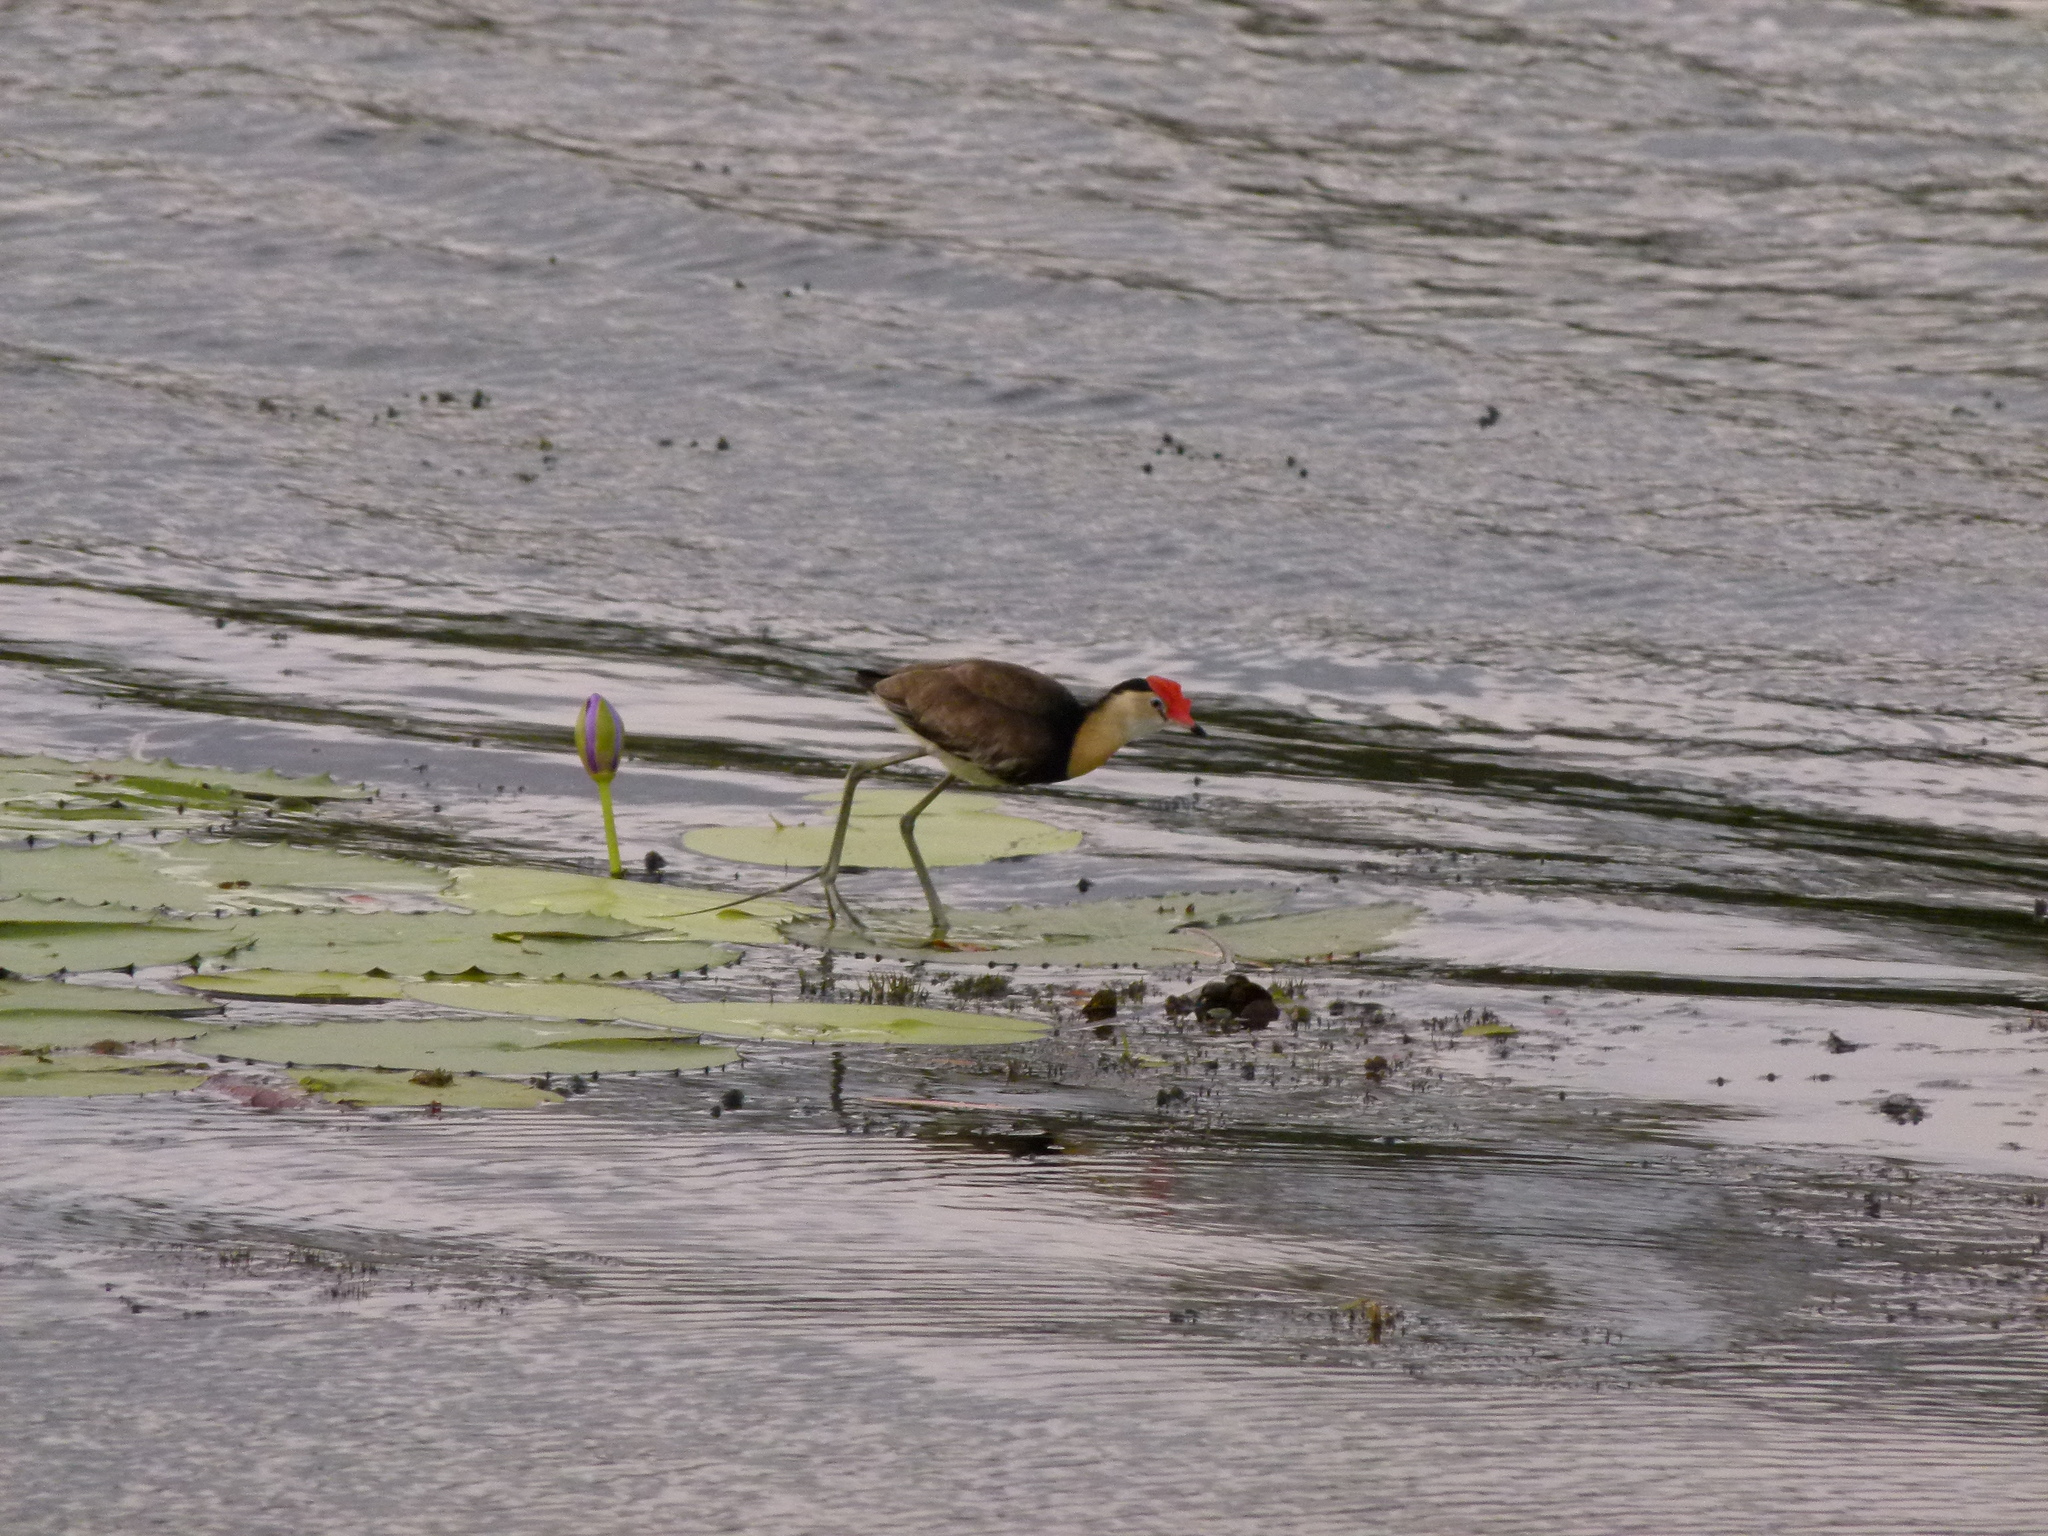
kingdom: Animalia
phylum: Chordata
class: Aves
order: Charadriiformes
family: Jacanidae
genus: Irediparra
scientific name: Irediparra gallinacea
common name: Comb-crested jacana
